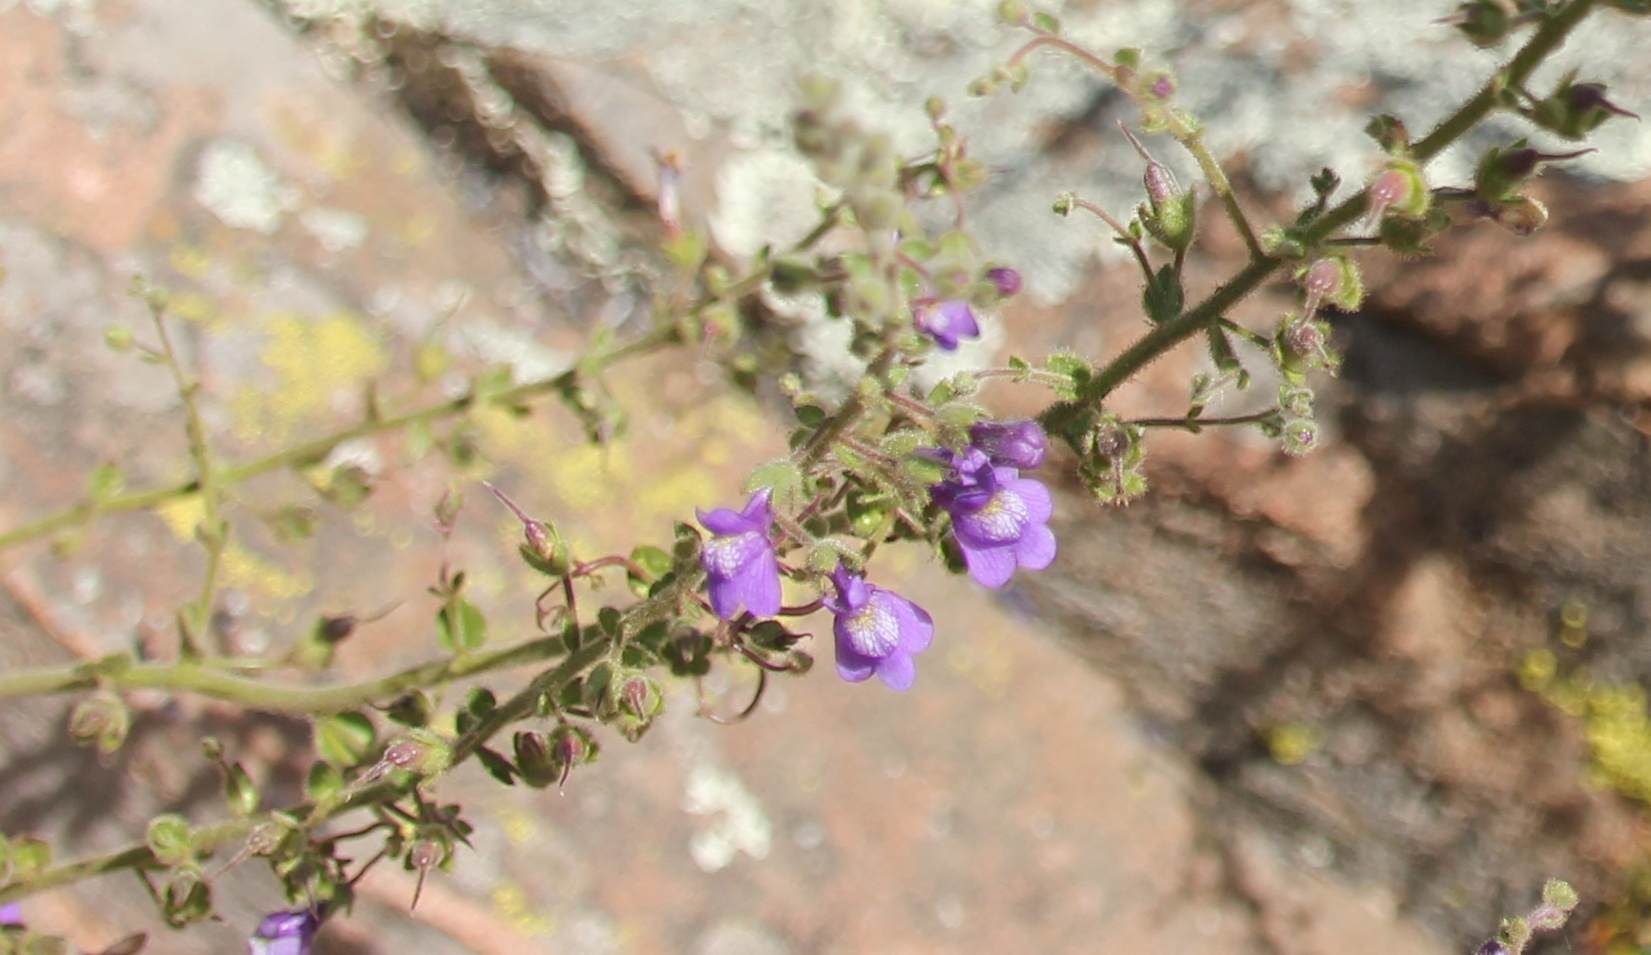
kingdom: Plantae
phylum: Tracheophyta
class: Magnoliopsida
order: Lamiales
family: Plantaginaceae
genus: Sairocarpus
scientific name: Sairocarpus nuttallianus
